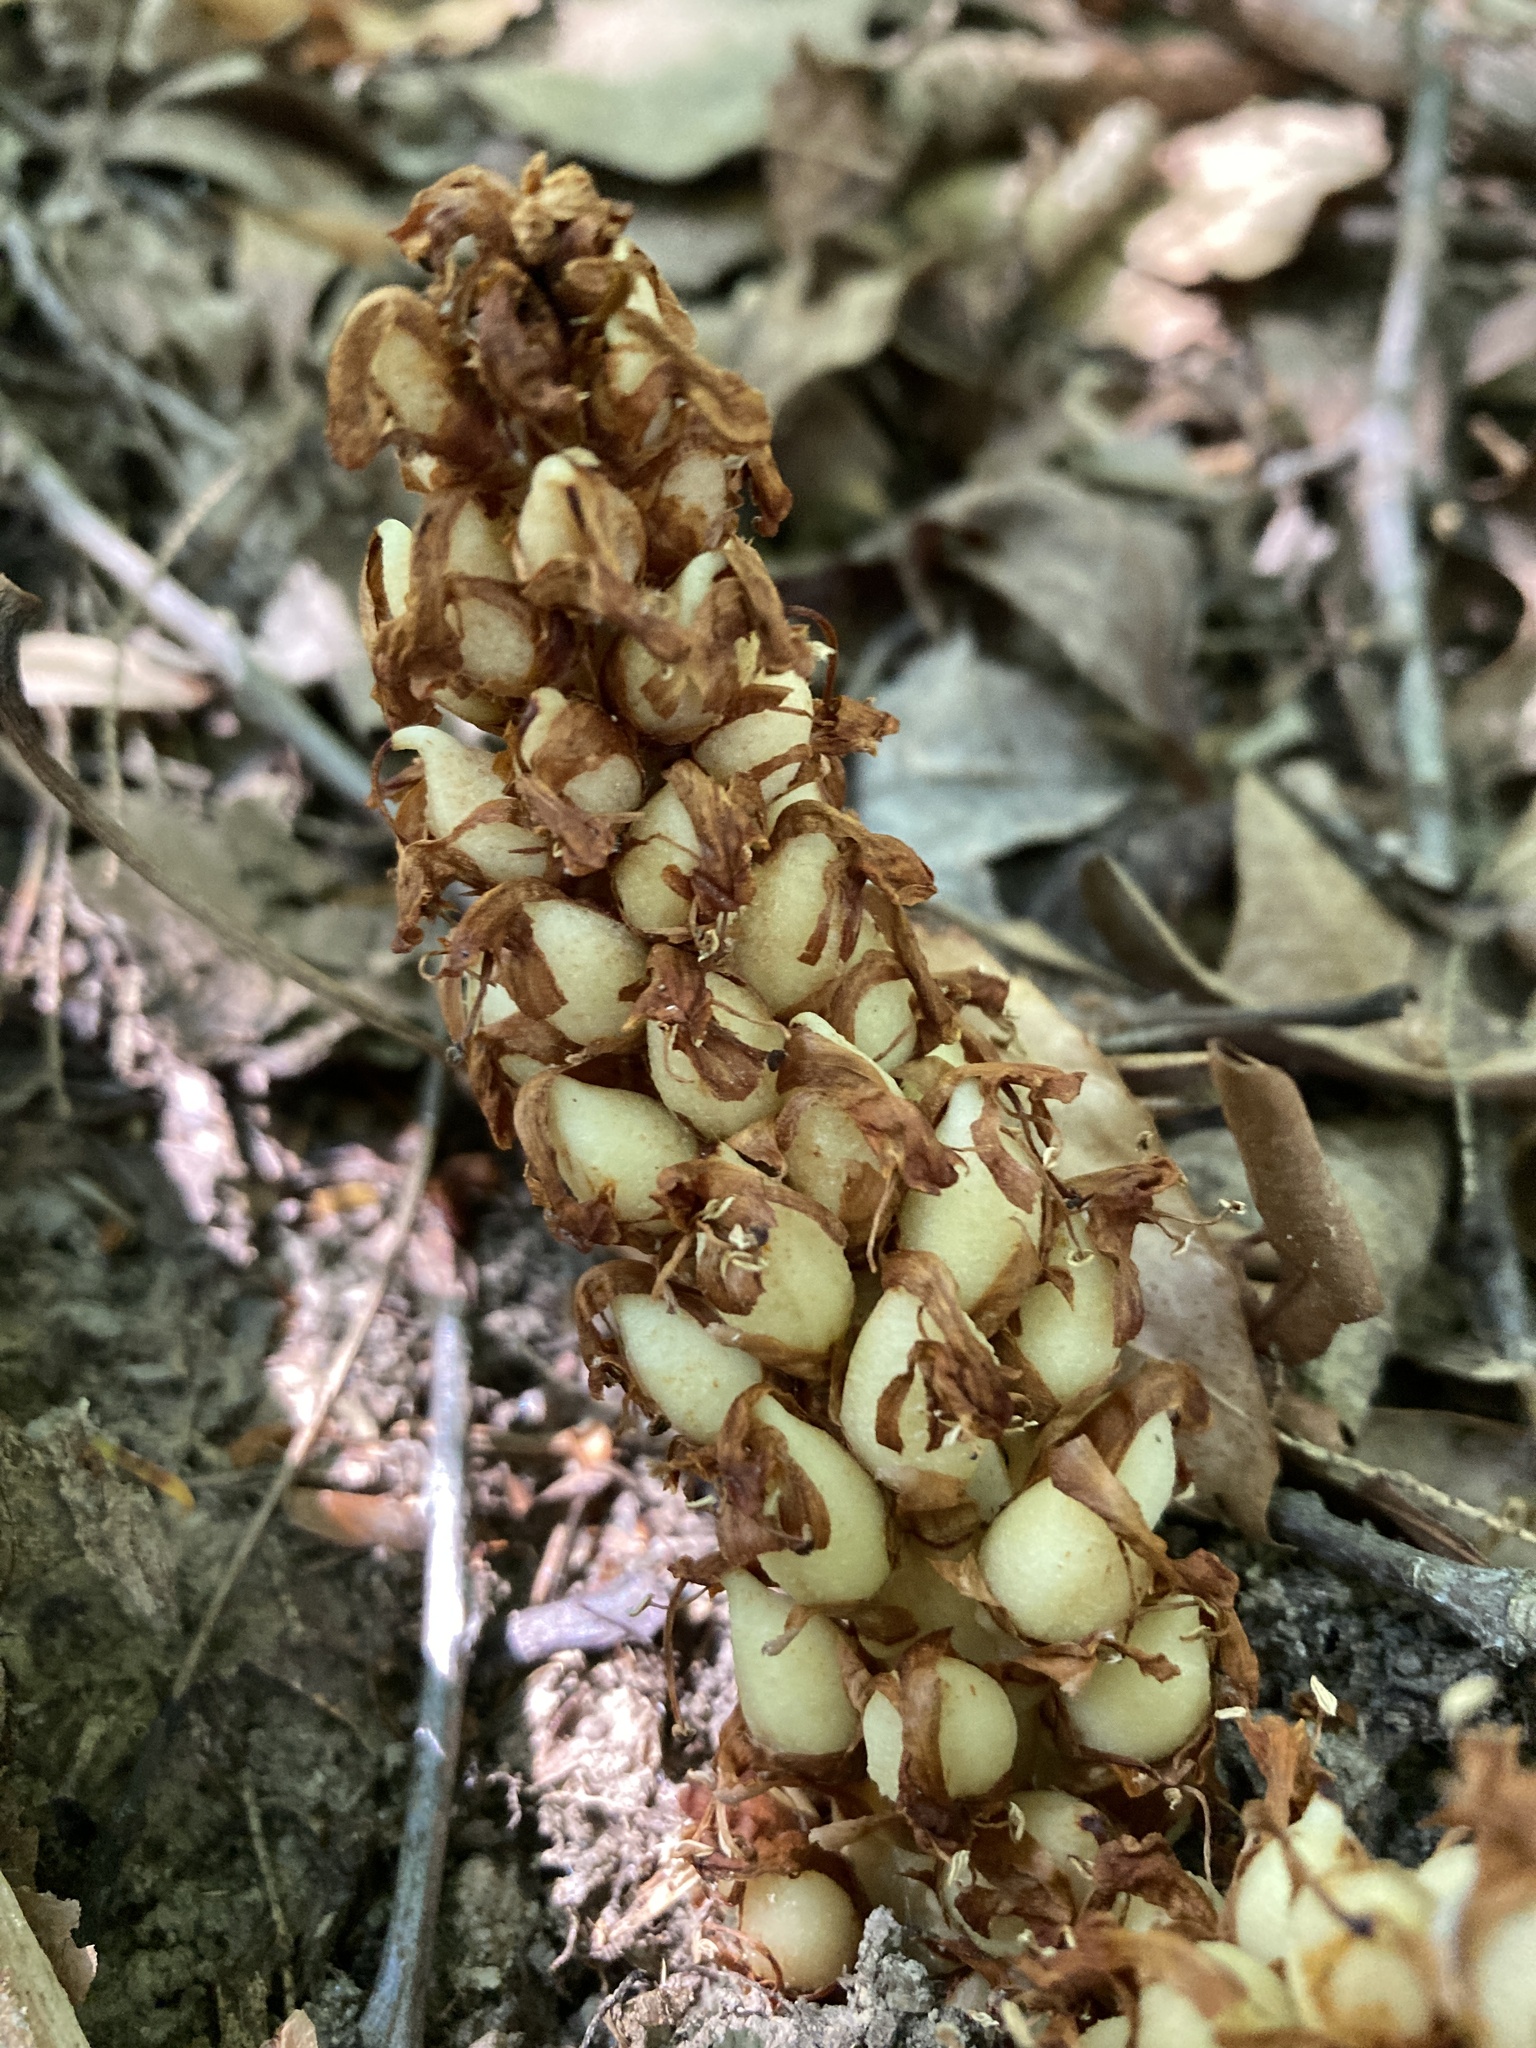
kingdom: Plantae
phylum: Tracheophyta
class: Magnoliopsida
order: Lamiales
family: Orobanchaceae
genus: Conopholis
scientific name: Conopholis americana
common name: American cancer-root
